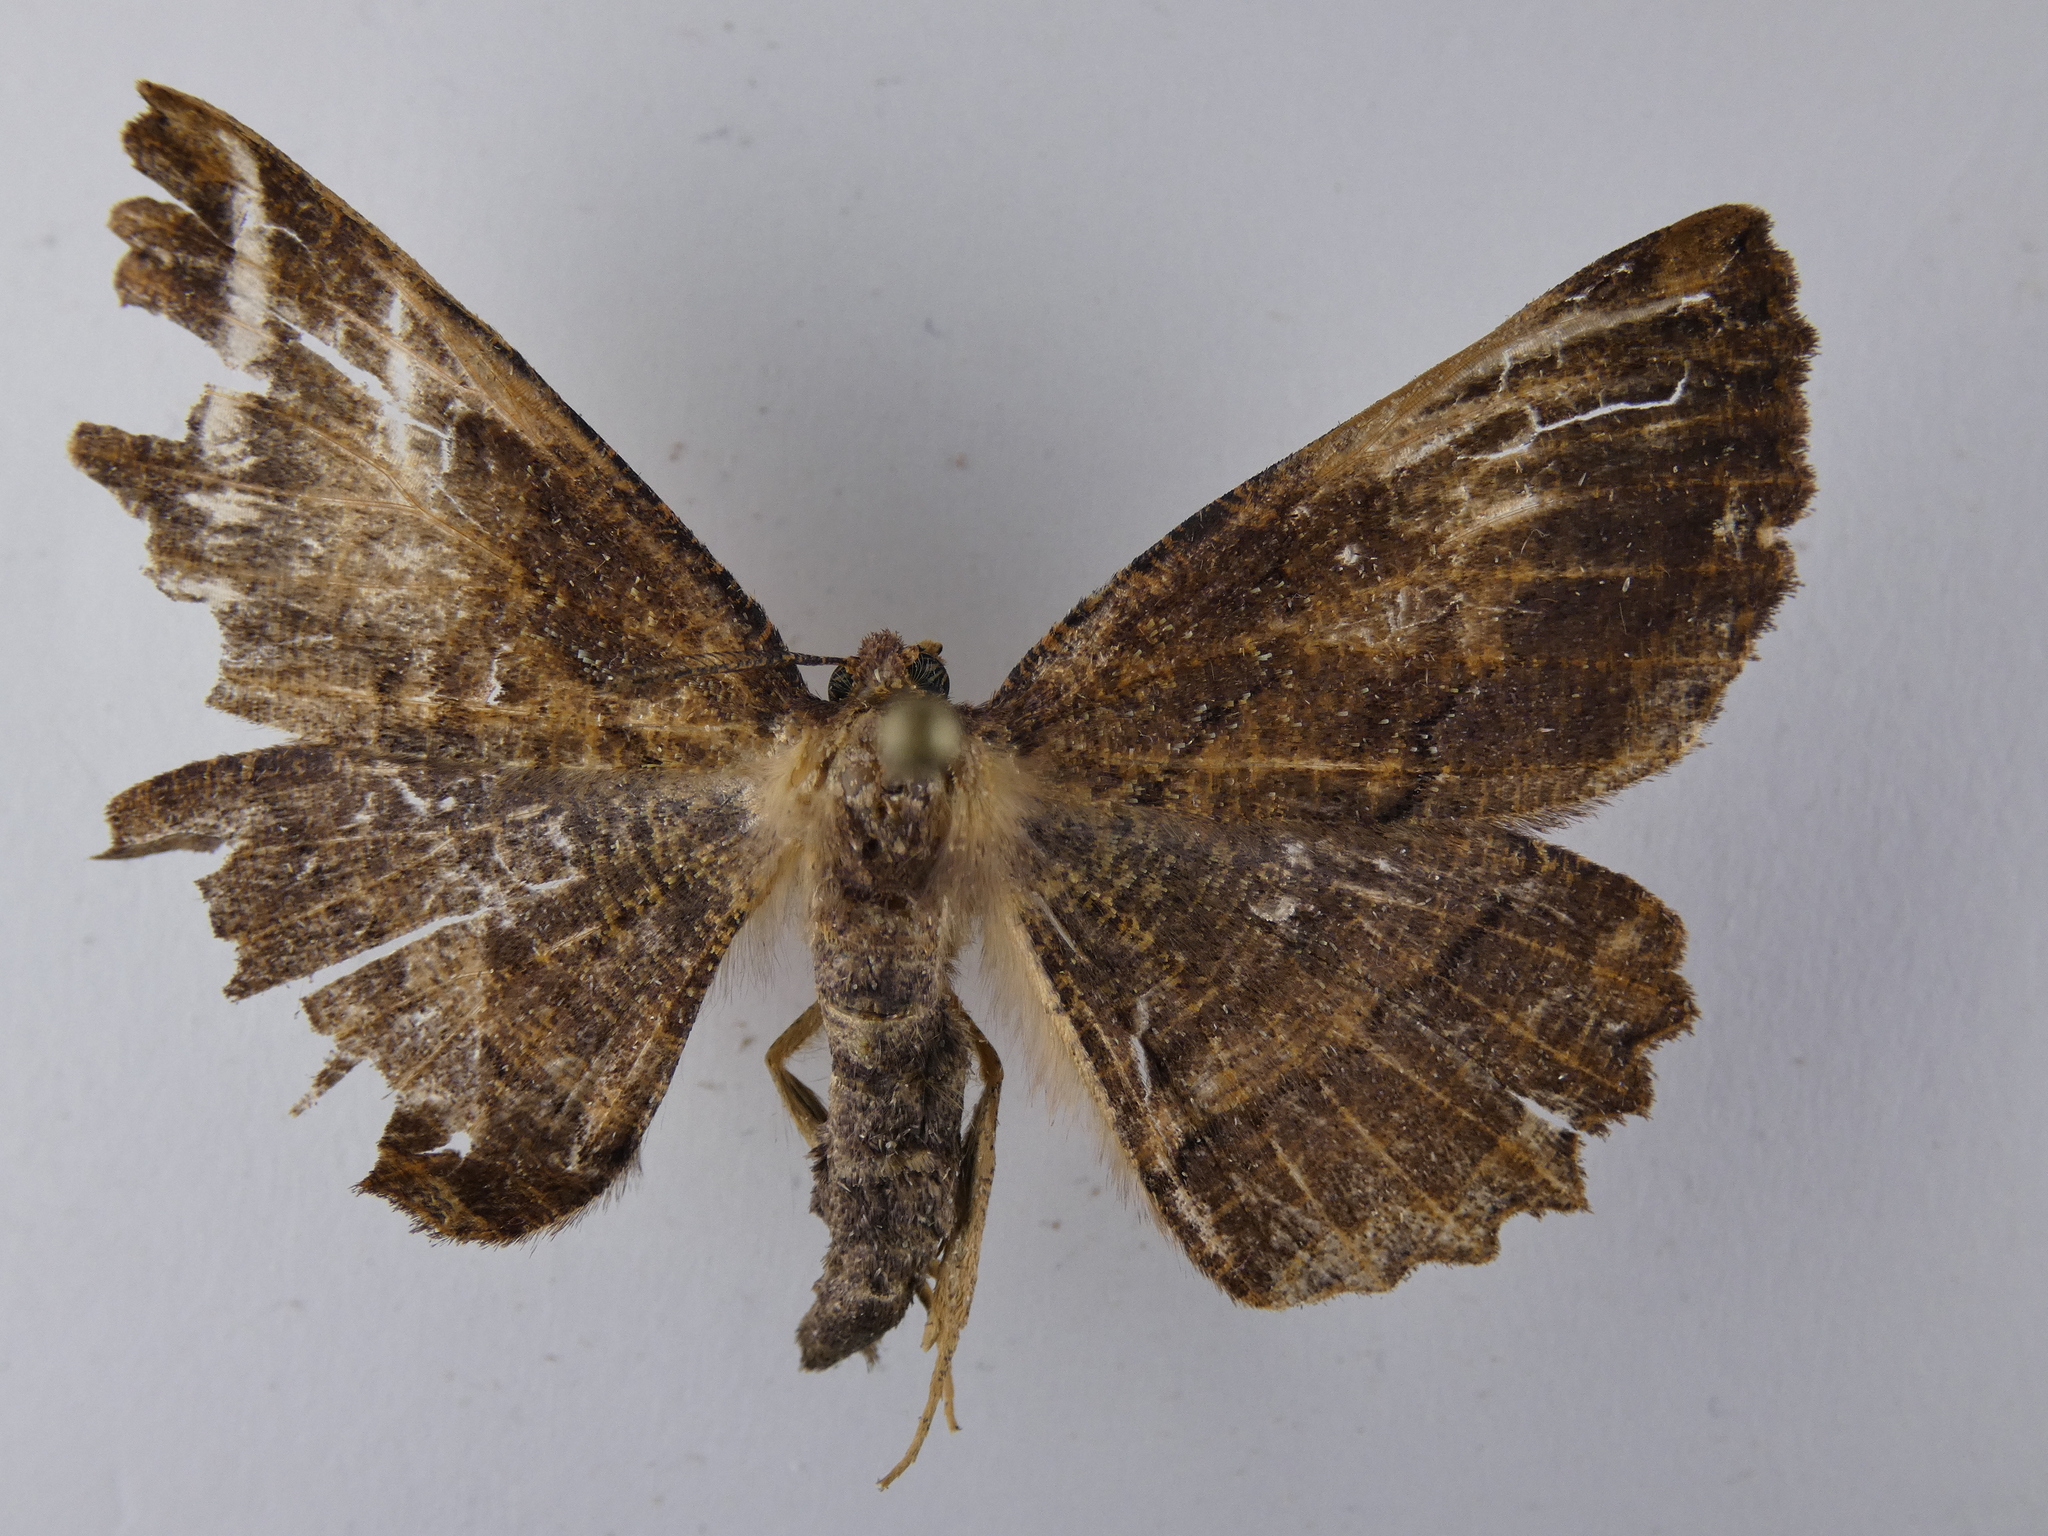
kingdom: Animalia
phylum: Arthropoda
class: Insecta
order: Lepidoptera
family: Geometridae
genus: Gellonia
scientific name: Gellonia dejectaria
